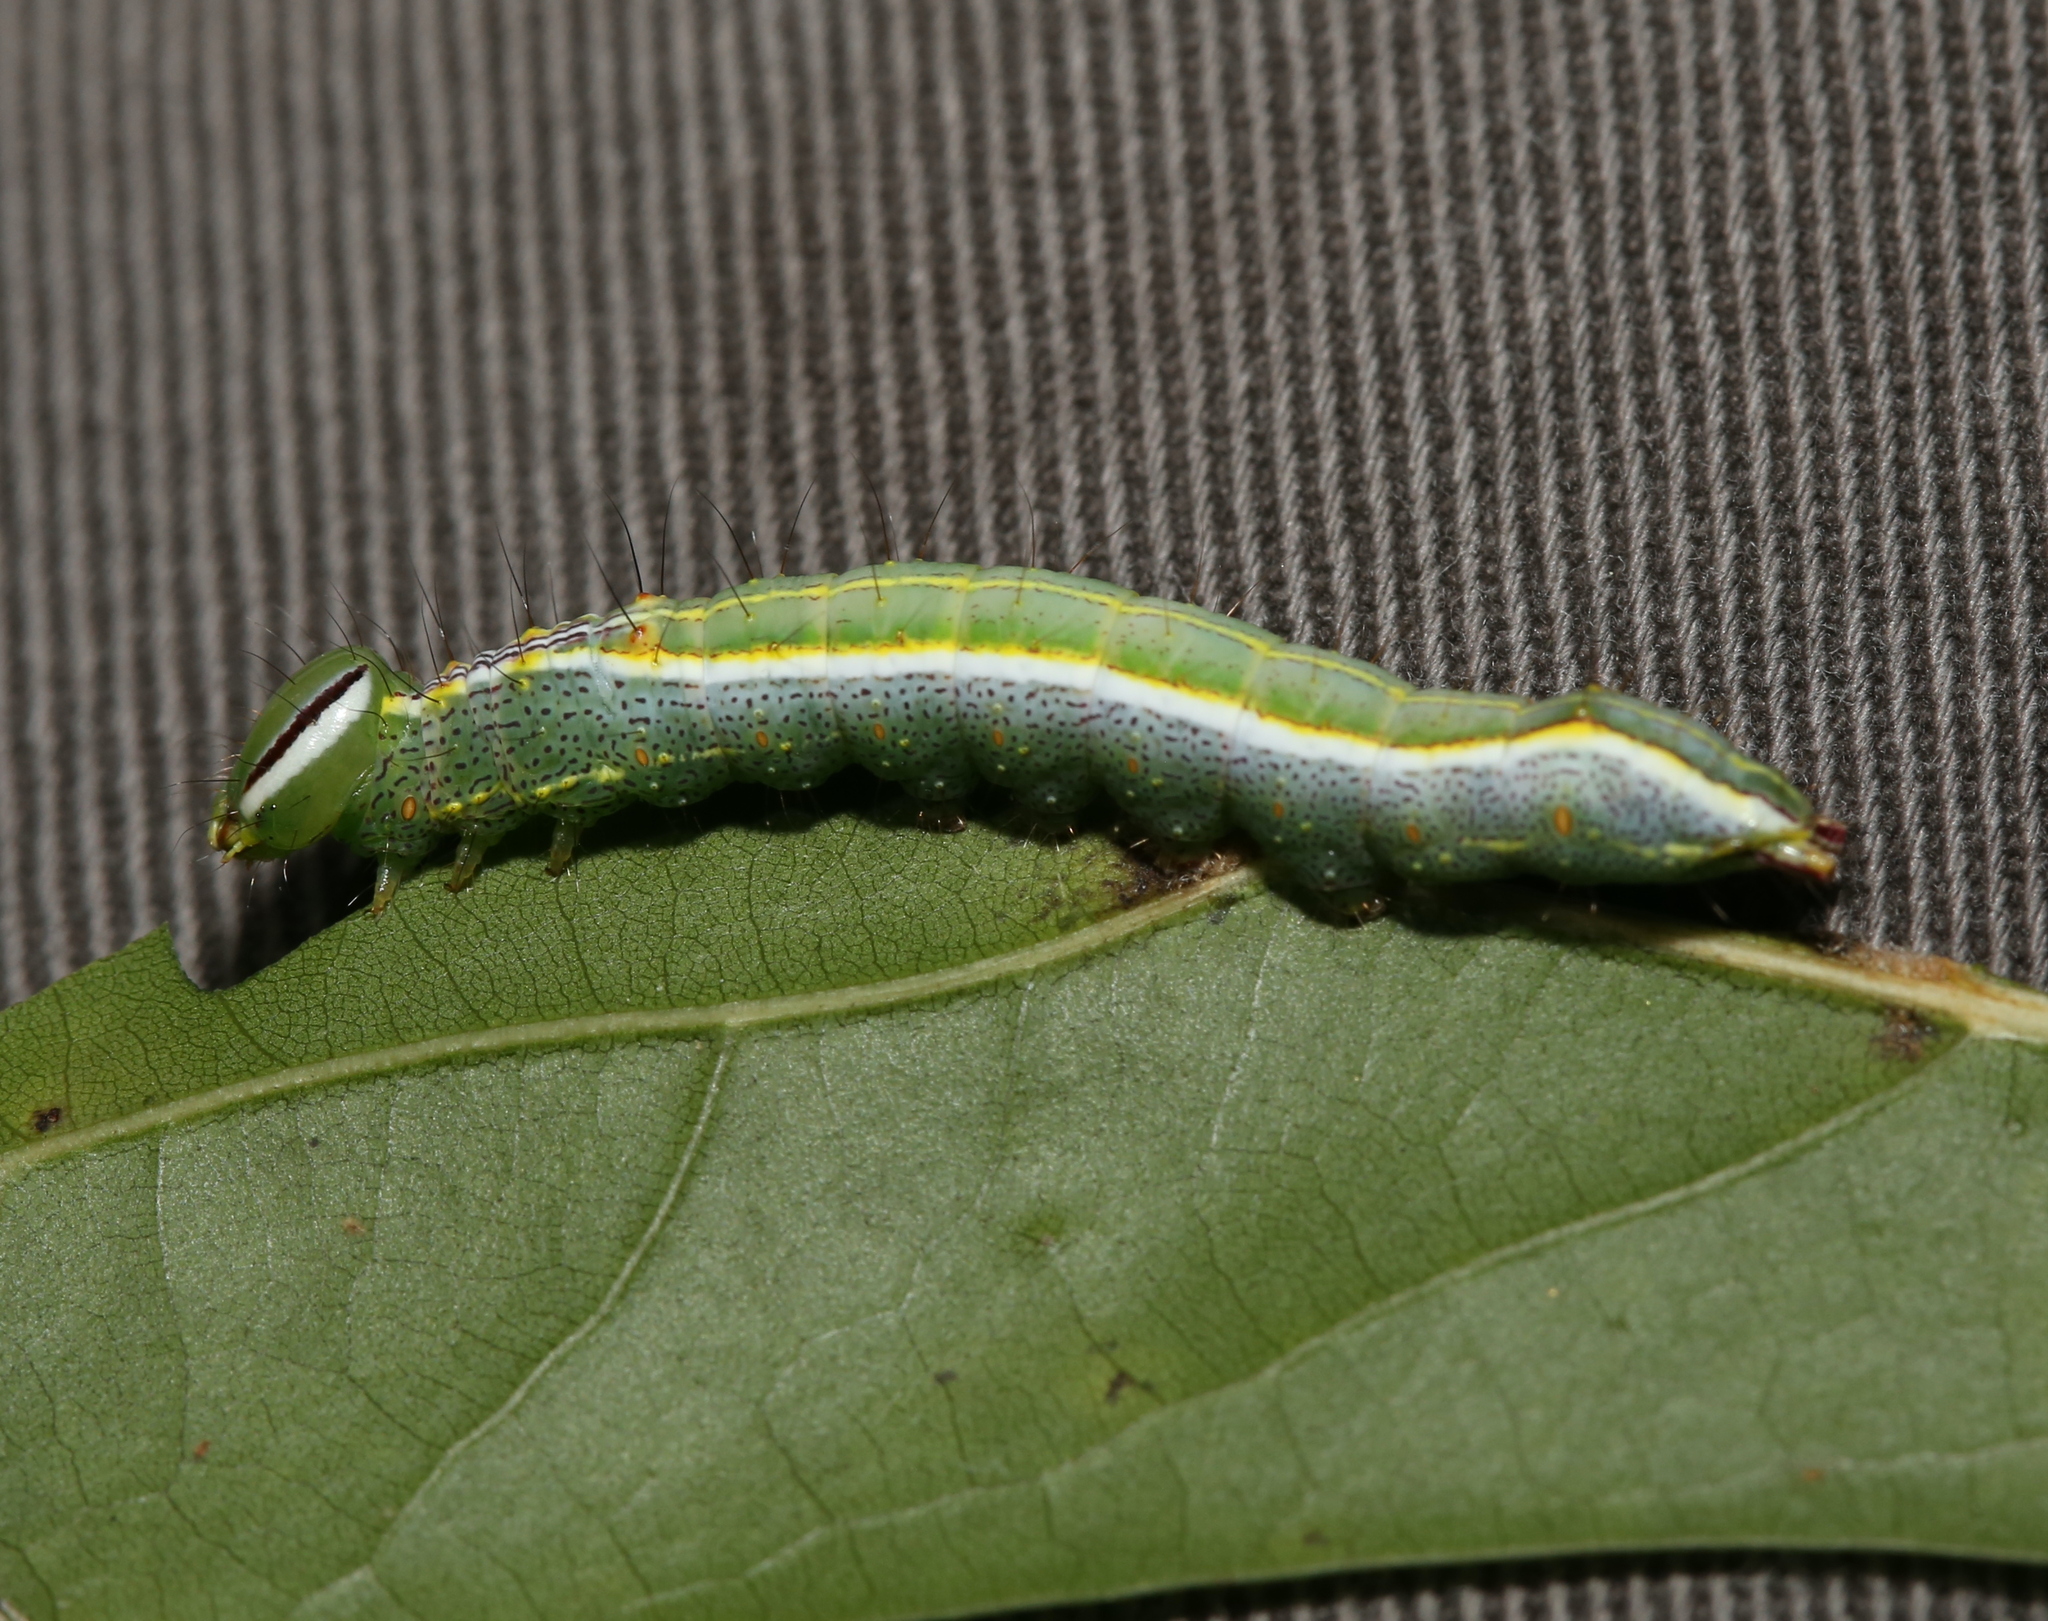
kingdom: Animalia
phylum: Arthropoda
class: Insecta
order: Lepidoptera
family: Notodontidae
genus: Lochmaeus
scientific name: Lochmaeus manteo
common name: Variable oakleaf caterpillar moth
